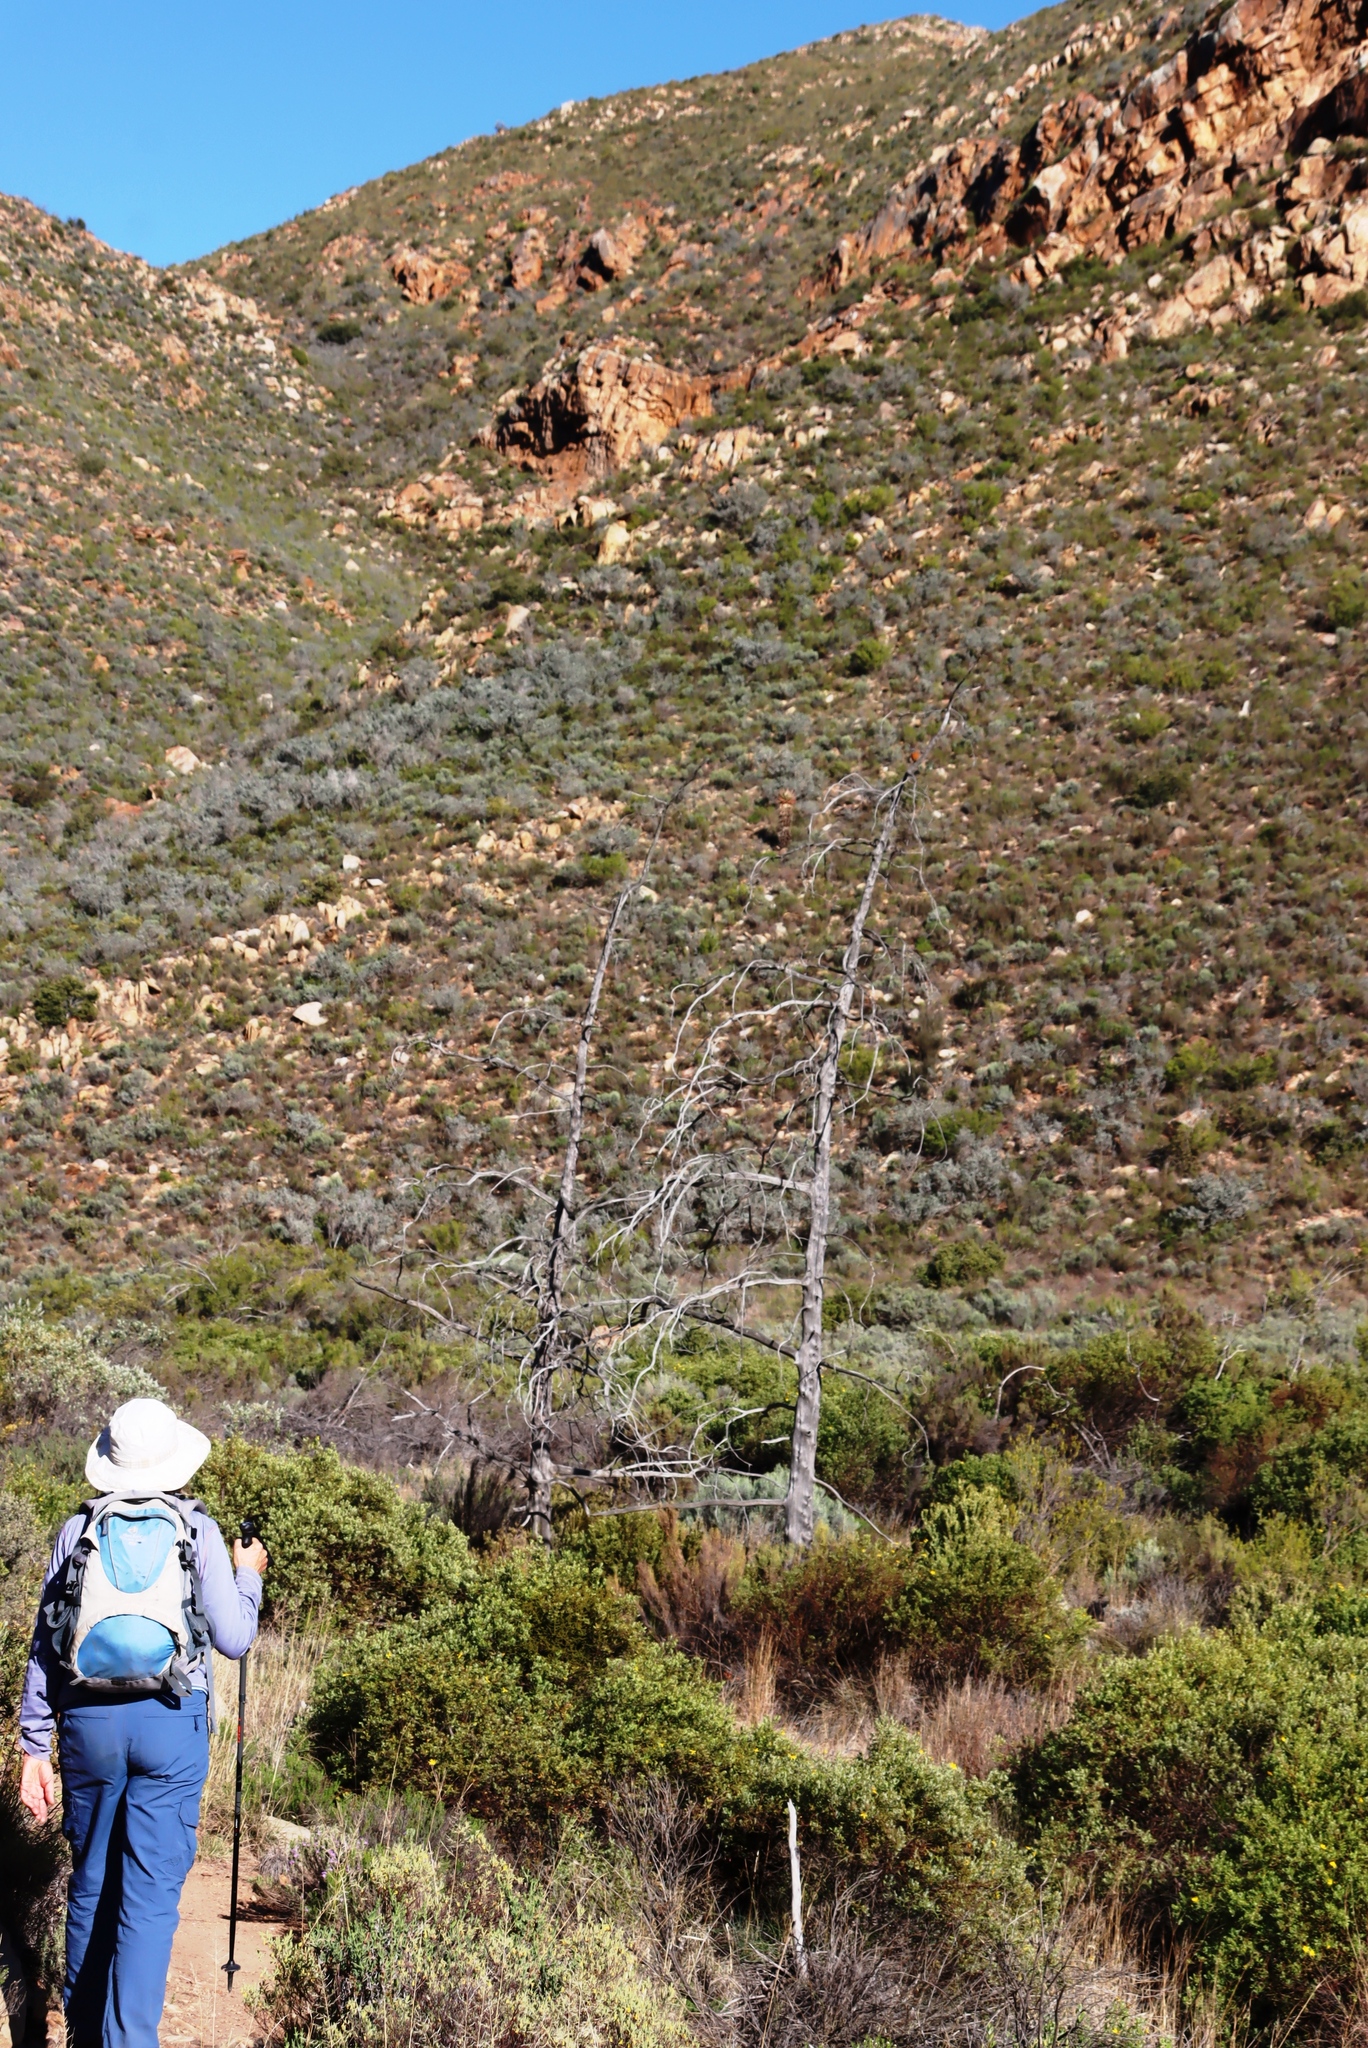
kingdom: Plantae
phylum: Tracheophyta
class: Pinopsida
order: Pinales
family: Cupressaceae
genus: Widdringtonia
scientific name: Widdringtonia schwarzii
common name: Baviaans cedar
